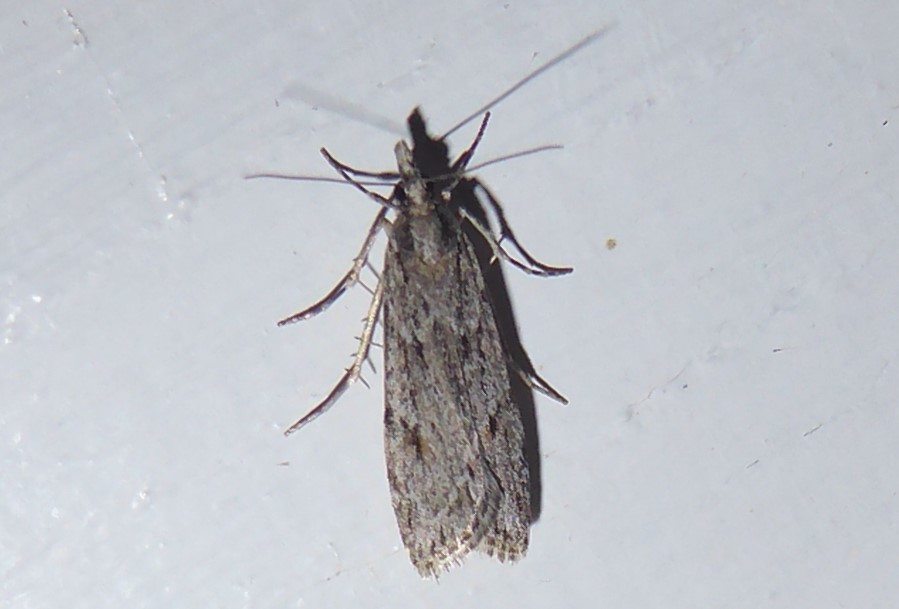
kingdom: Animalia
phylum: Arthropoda
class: Insecta
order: Lepidoptera
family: Crambidae
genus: Scoparia
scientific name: Scoparia chalicodes
